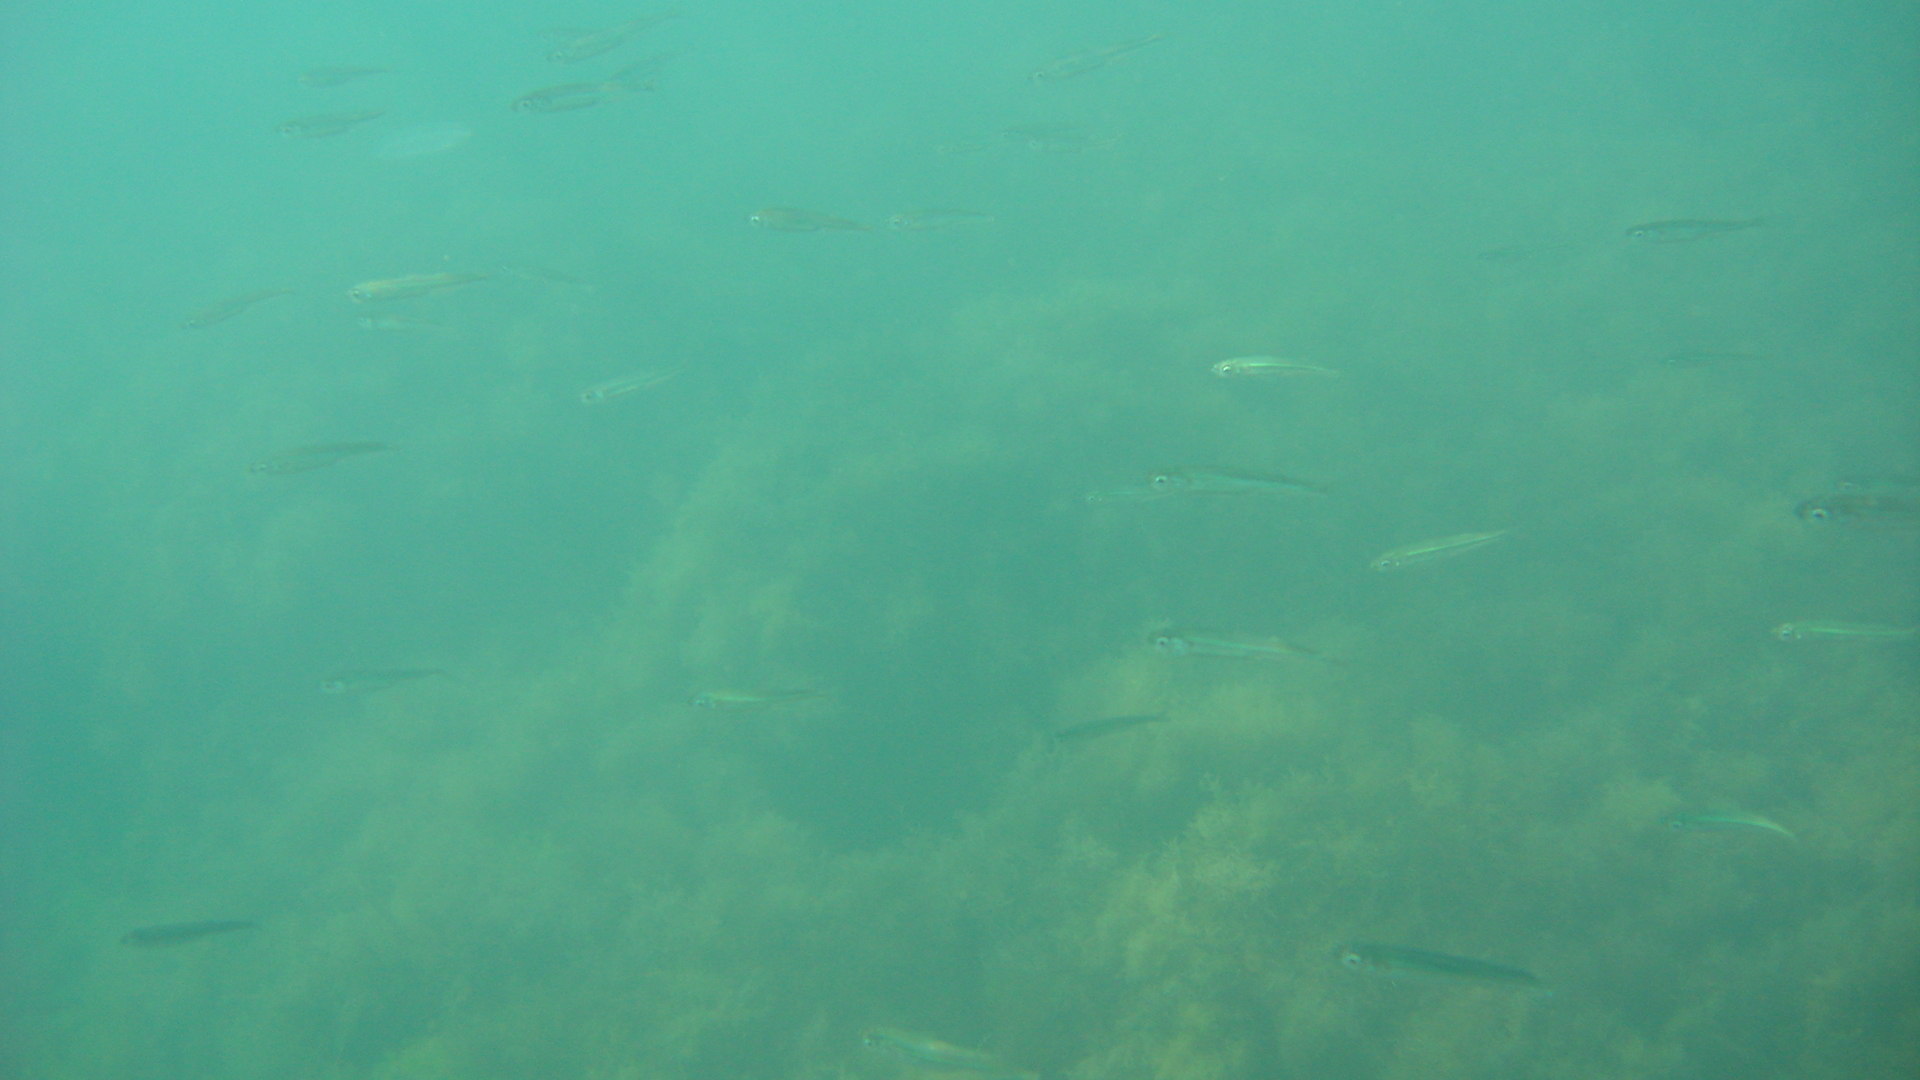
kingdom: Animalia
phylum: Chordata
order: Atheriniformes
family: Atherinidae
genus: Atherina
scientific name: Atherina
